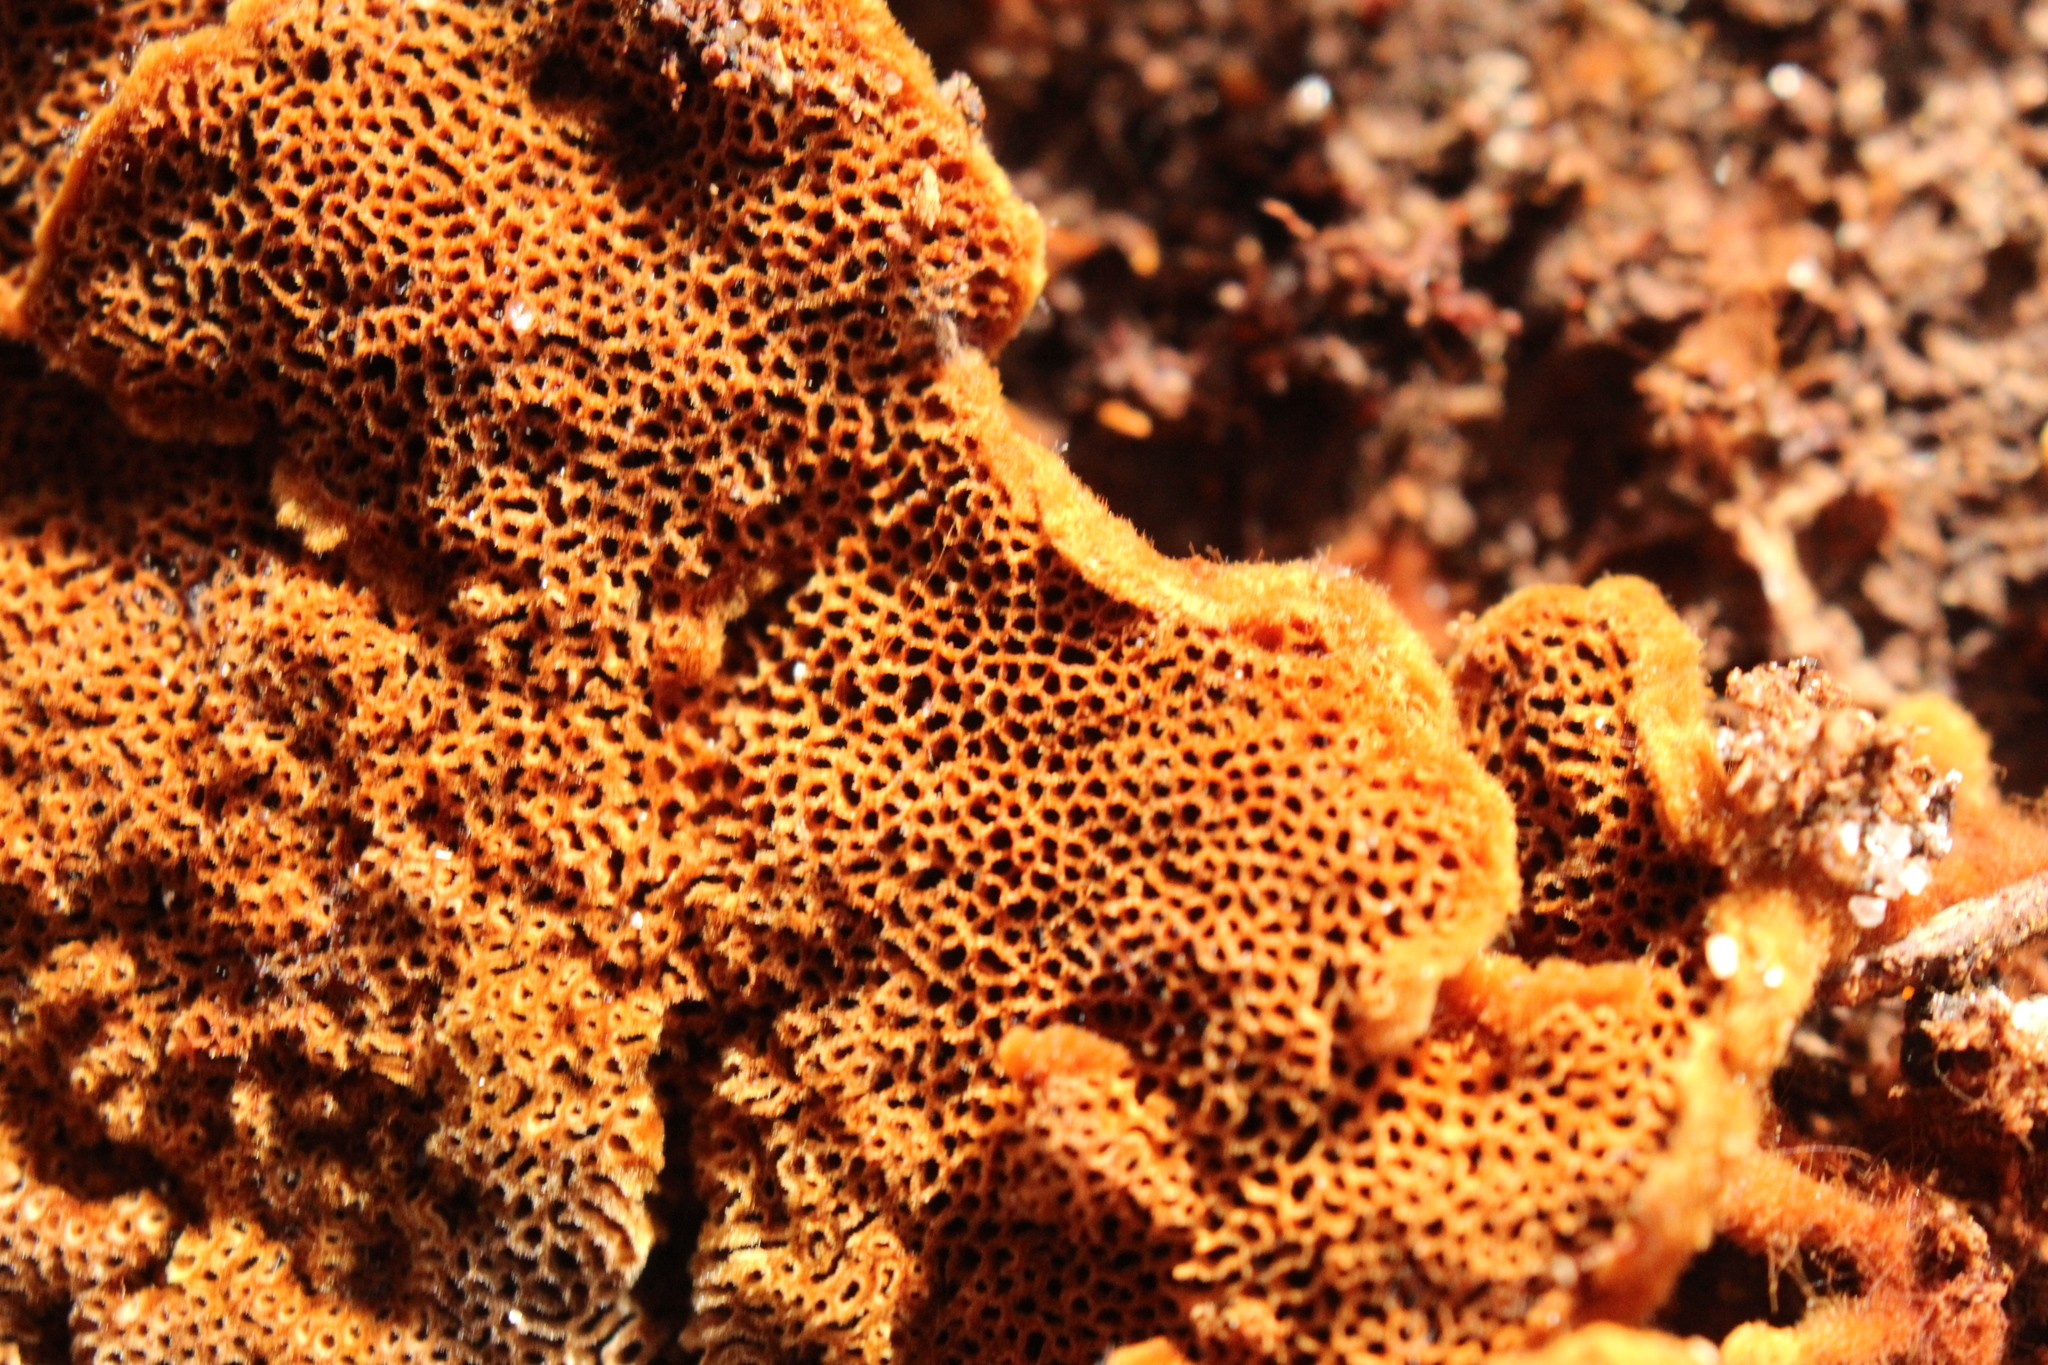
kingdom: Fungi
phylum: Basidiomycota
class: Agaricomycetes
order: Hymenochaetales
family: Hymenochaetaceae
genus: Coltriciella
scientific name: Coltriciella dependens
